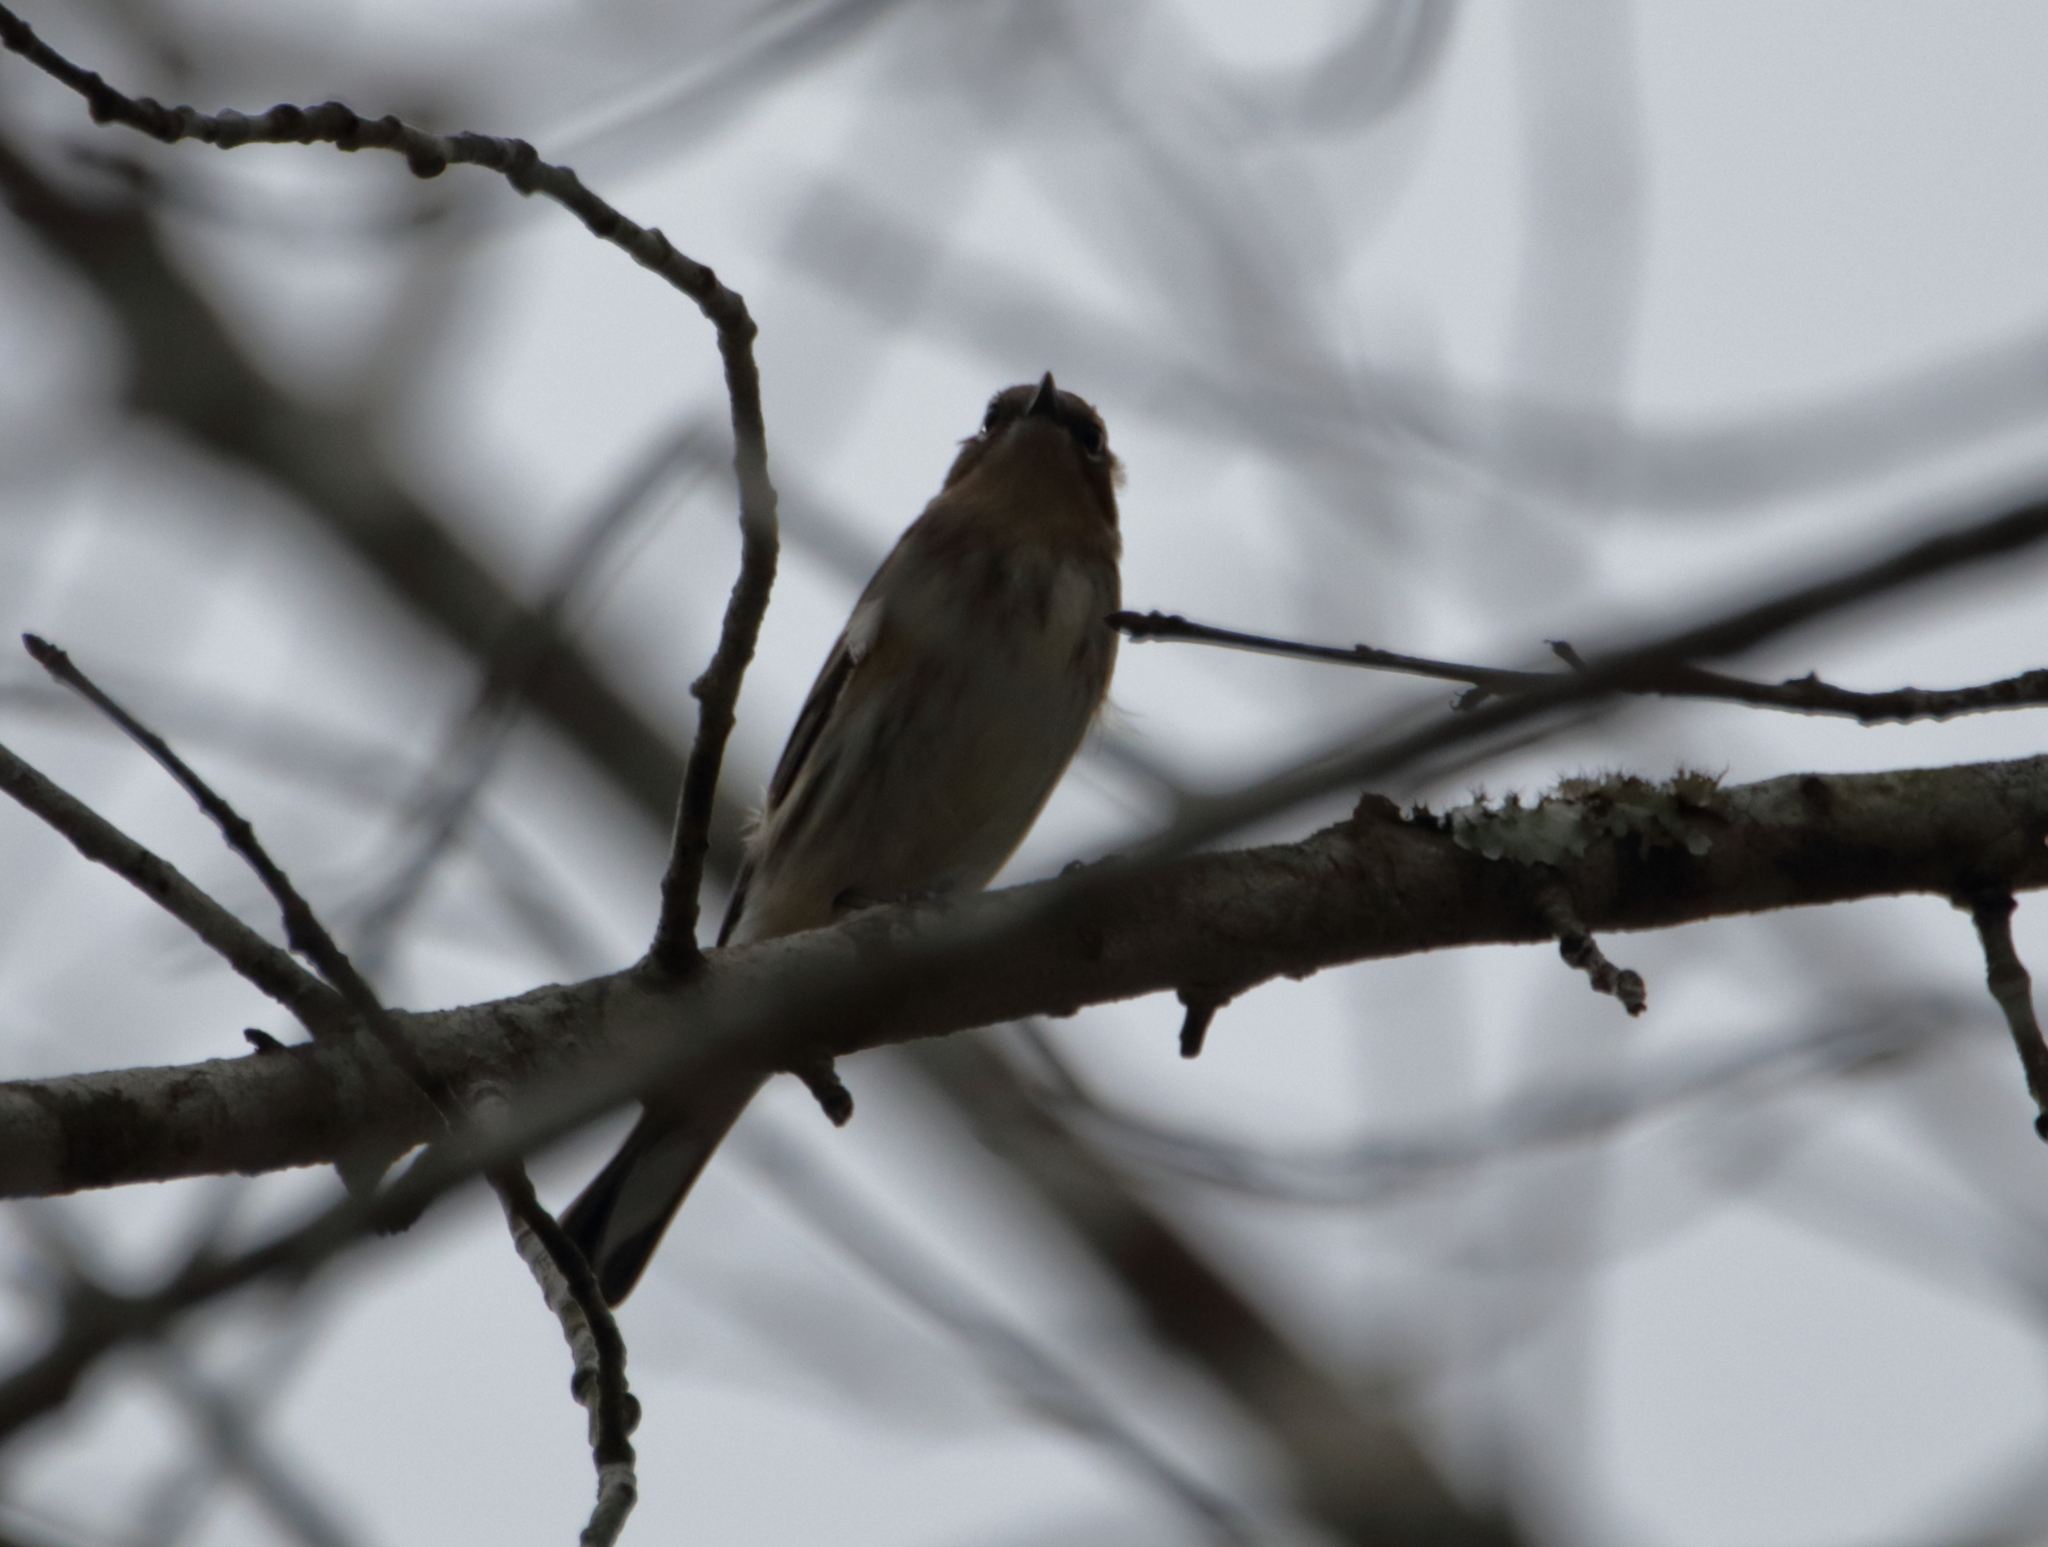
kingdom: Animalia
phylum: Chordata
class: Aves
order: Passeriformes
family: Parulidae
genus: Setophaga
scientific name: Setophaga coronata
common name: Myrtle warbler
